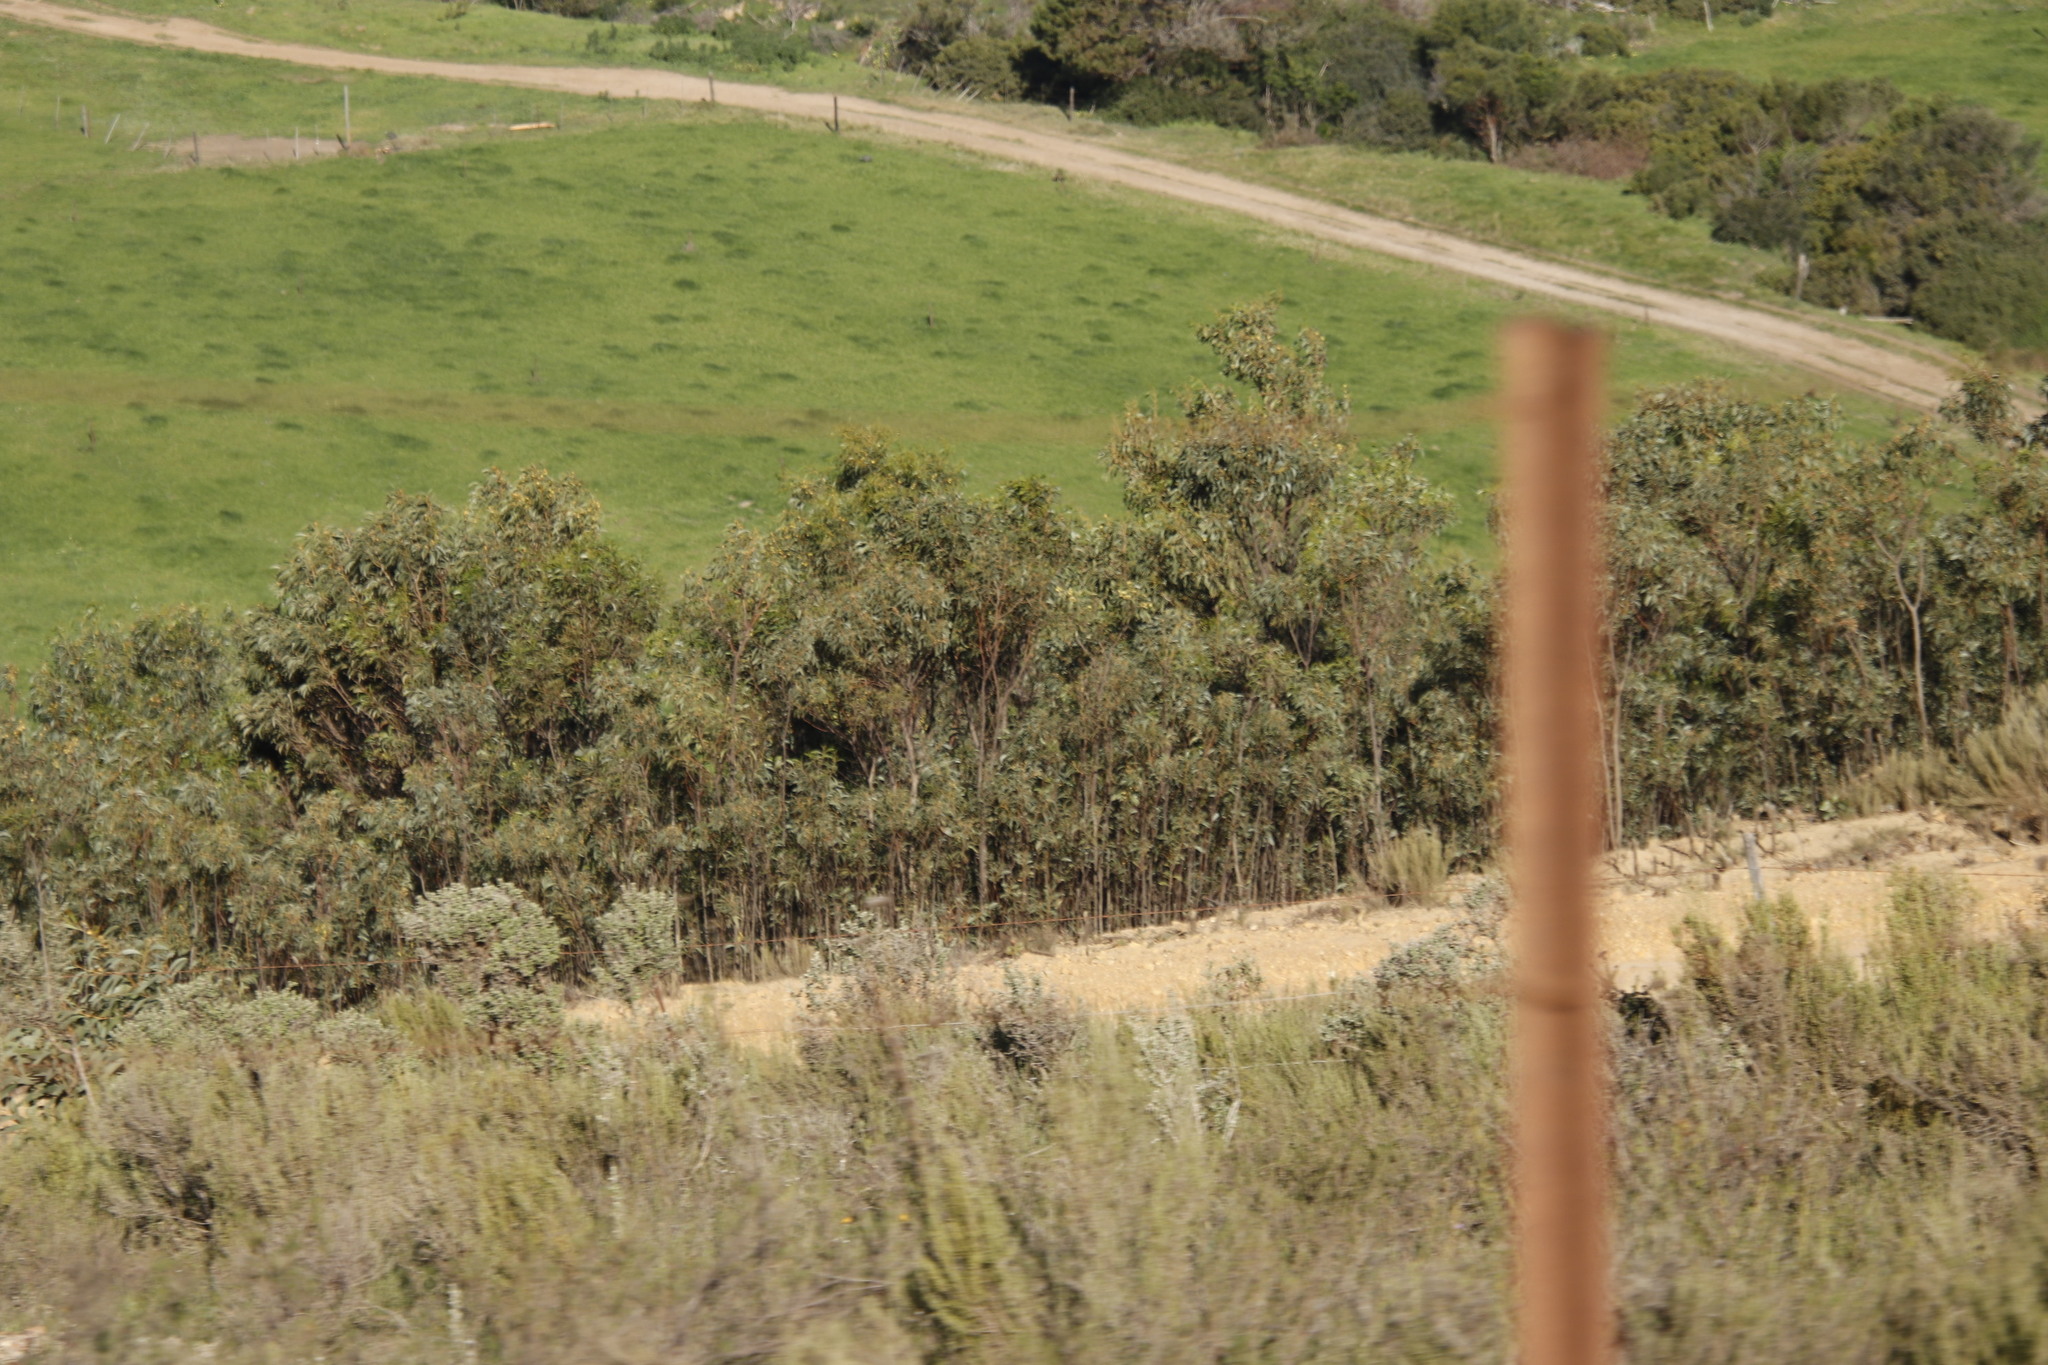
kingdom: Plantae
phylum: Tracheophyta
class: Magnoliopsida
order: Fabales
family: Fabaceae
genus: Acacia
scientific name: Acacia pycnantha
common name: Golden wattle
